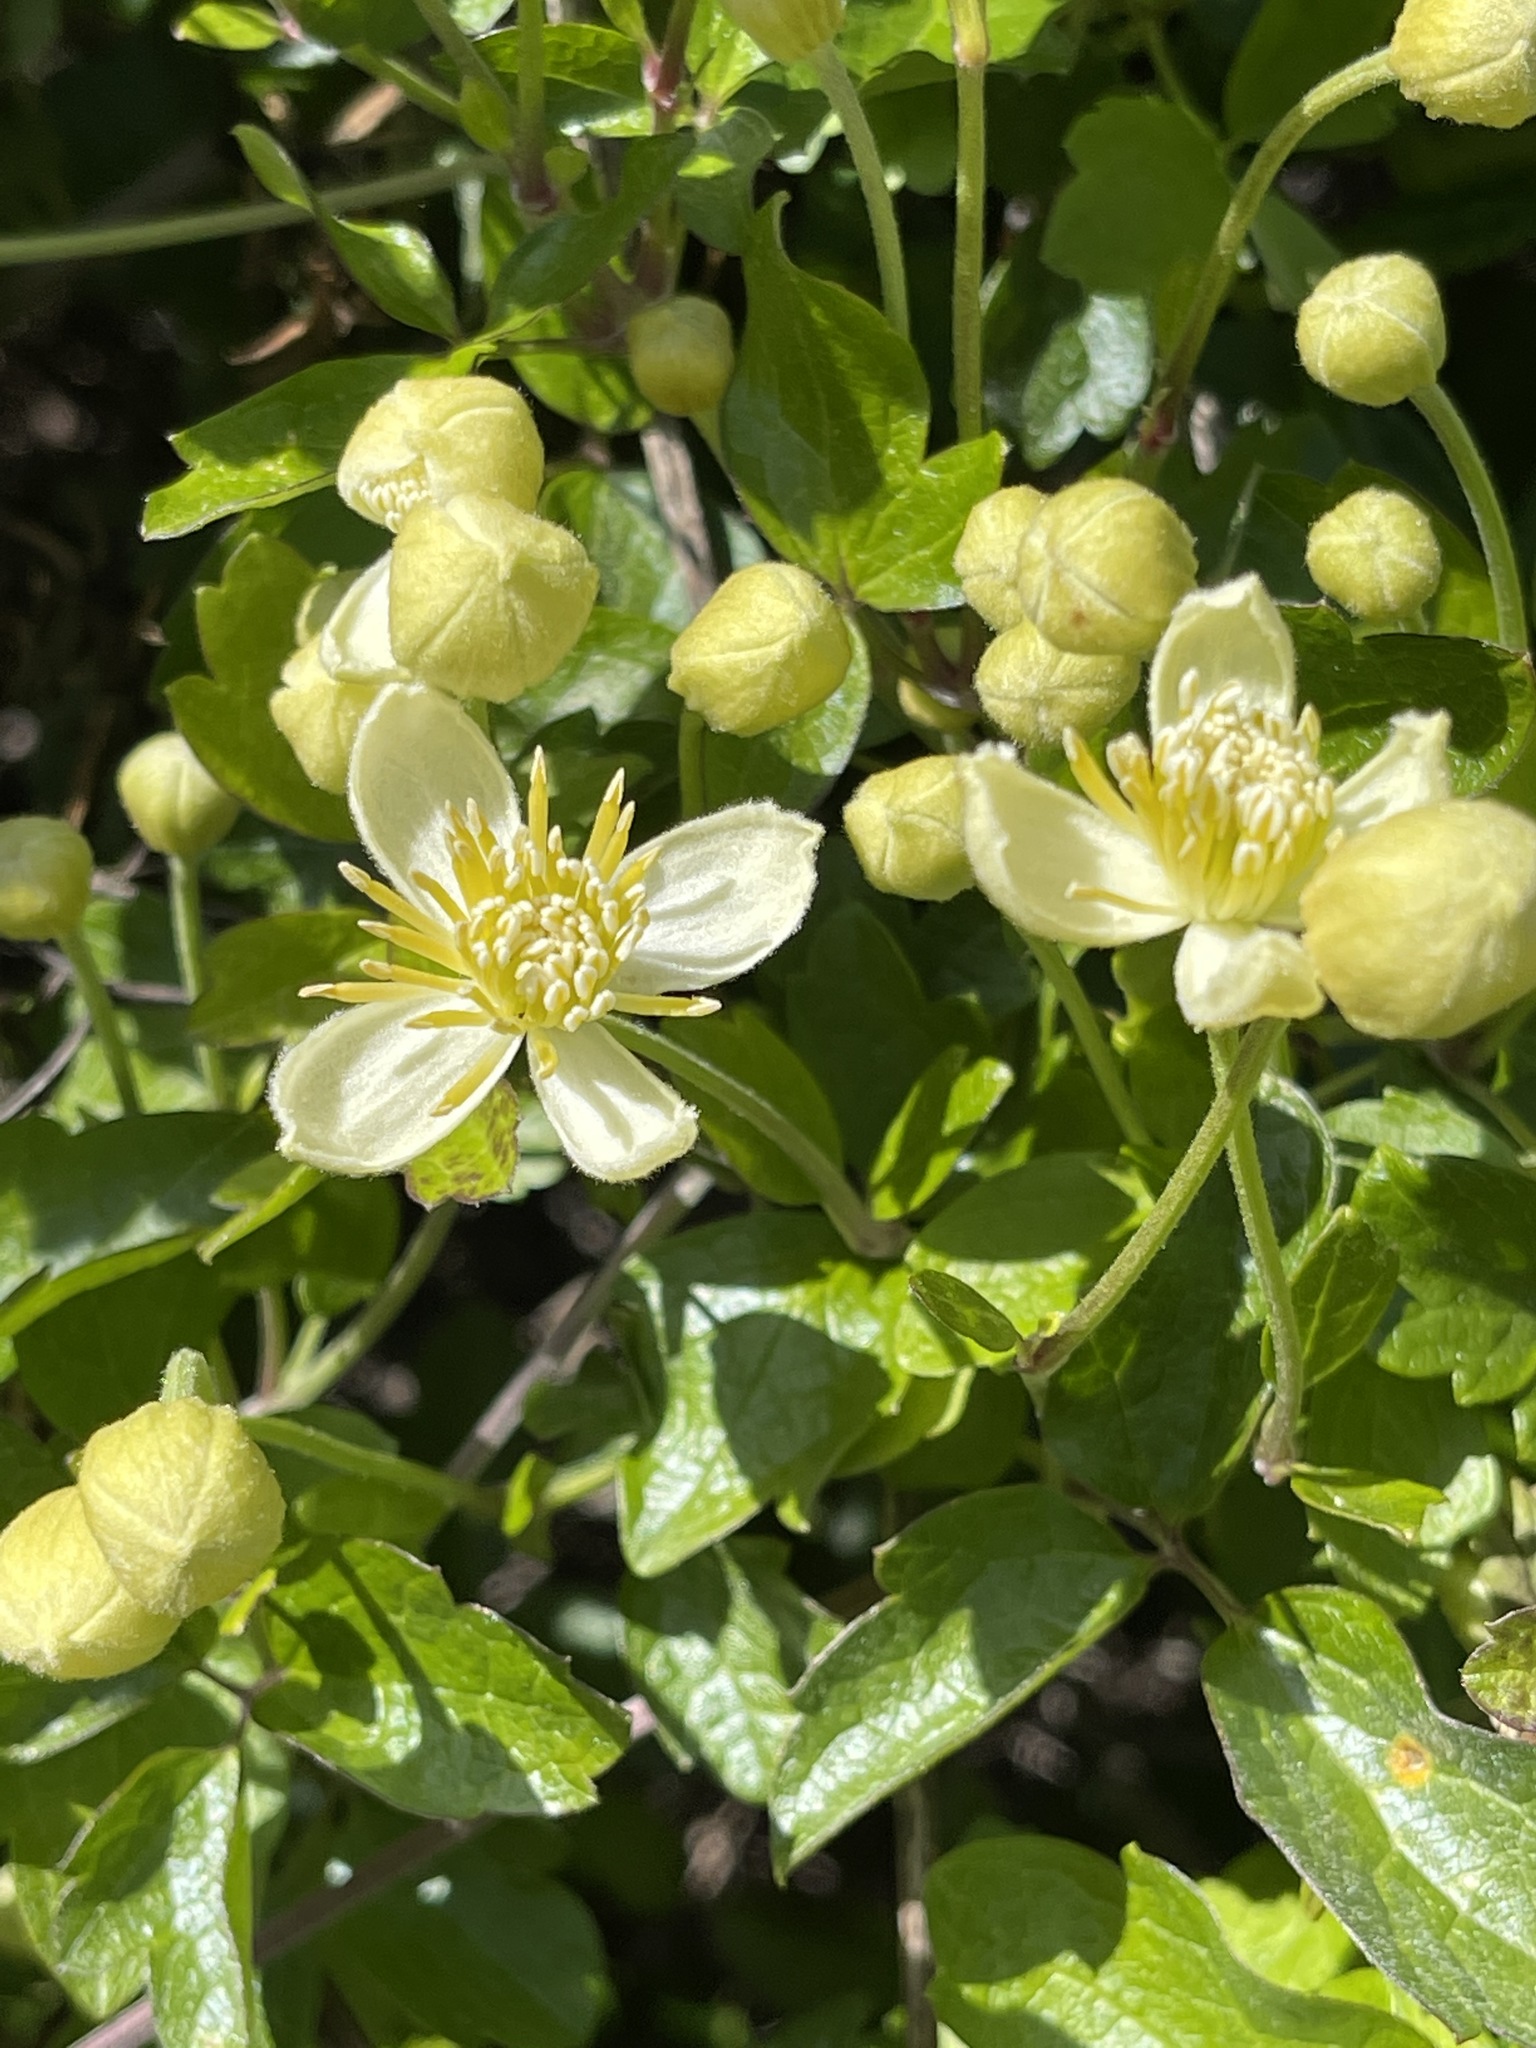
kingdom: Plantae
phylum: Tracheophyta
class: Magnoliopsida
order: Ranunculales
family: Ranunculaceae
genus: Clematis
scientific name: Clematis lasiantha
